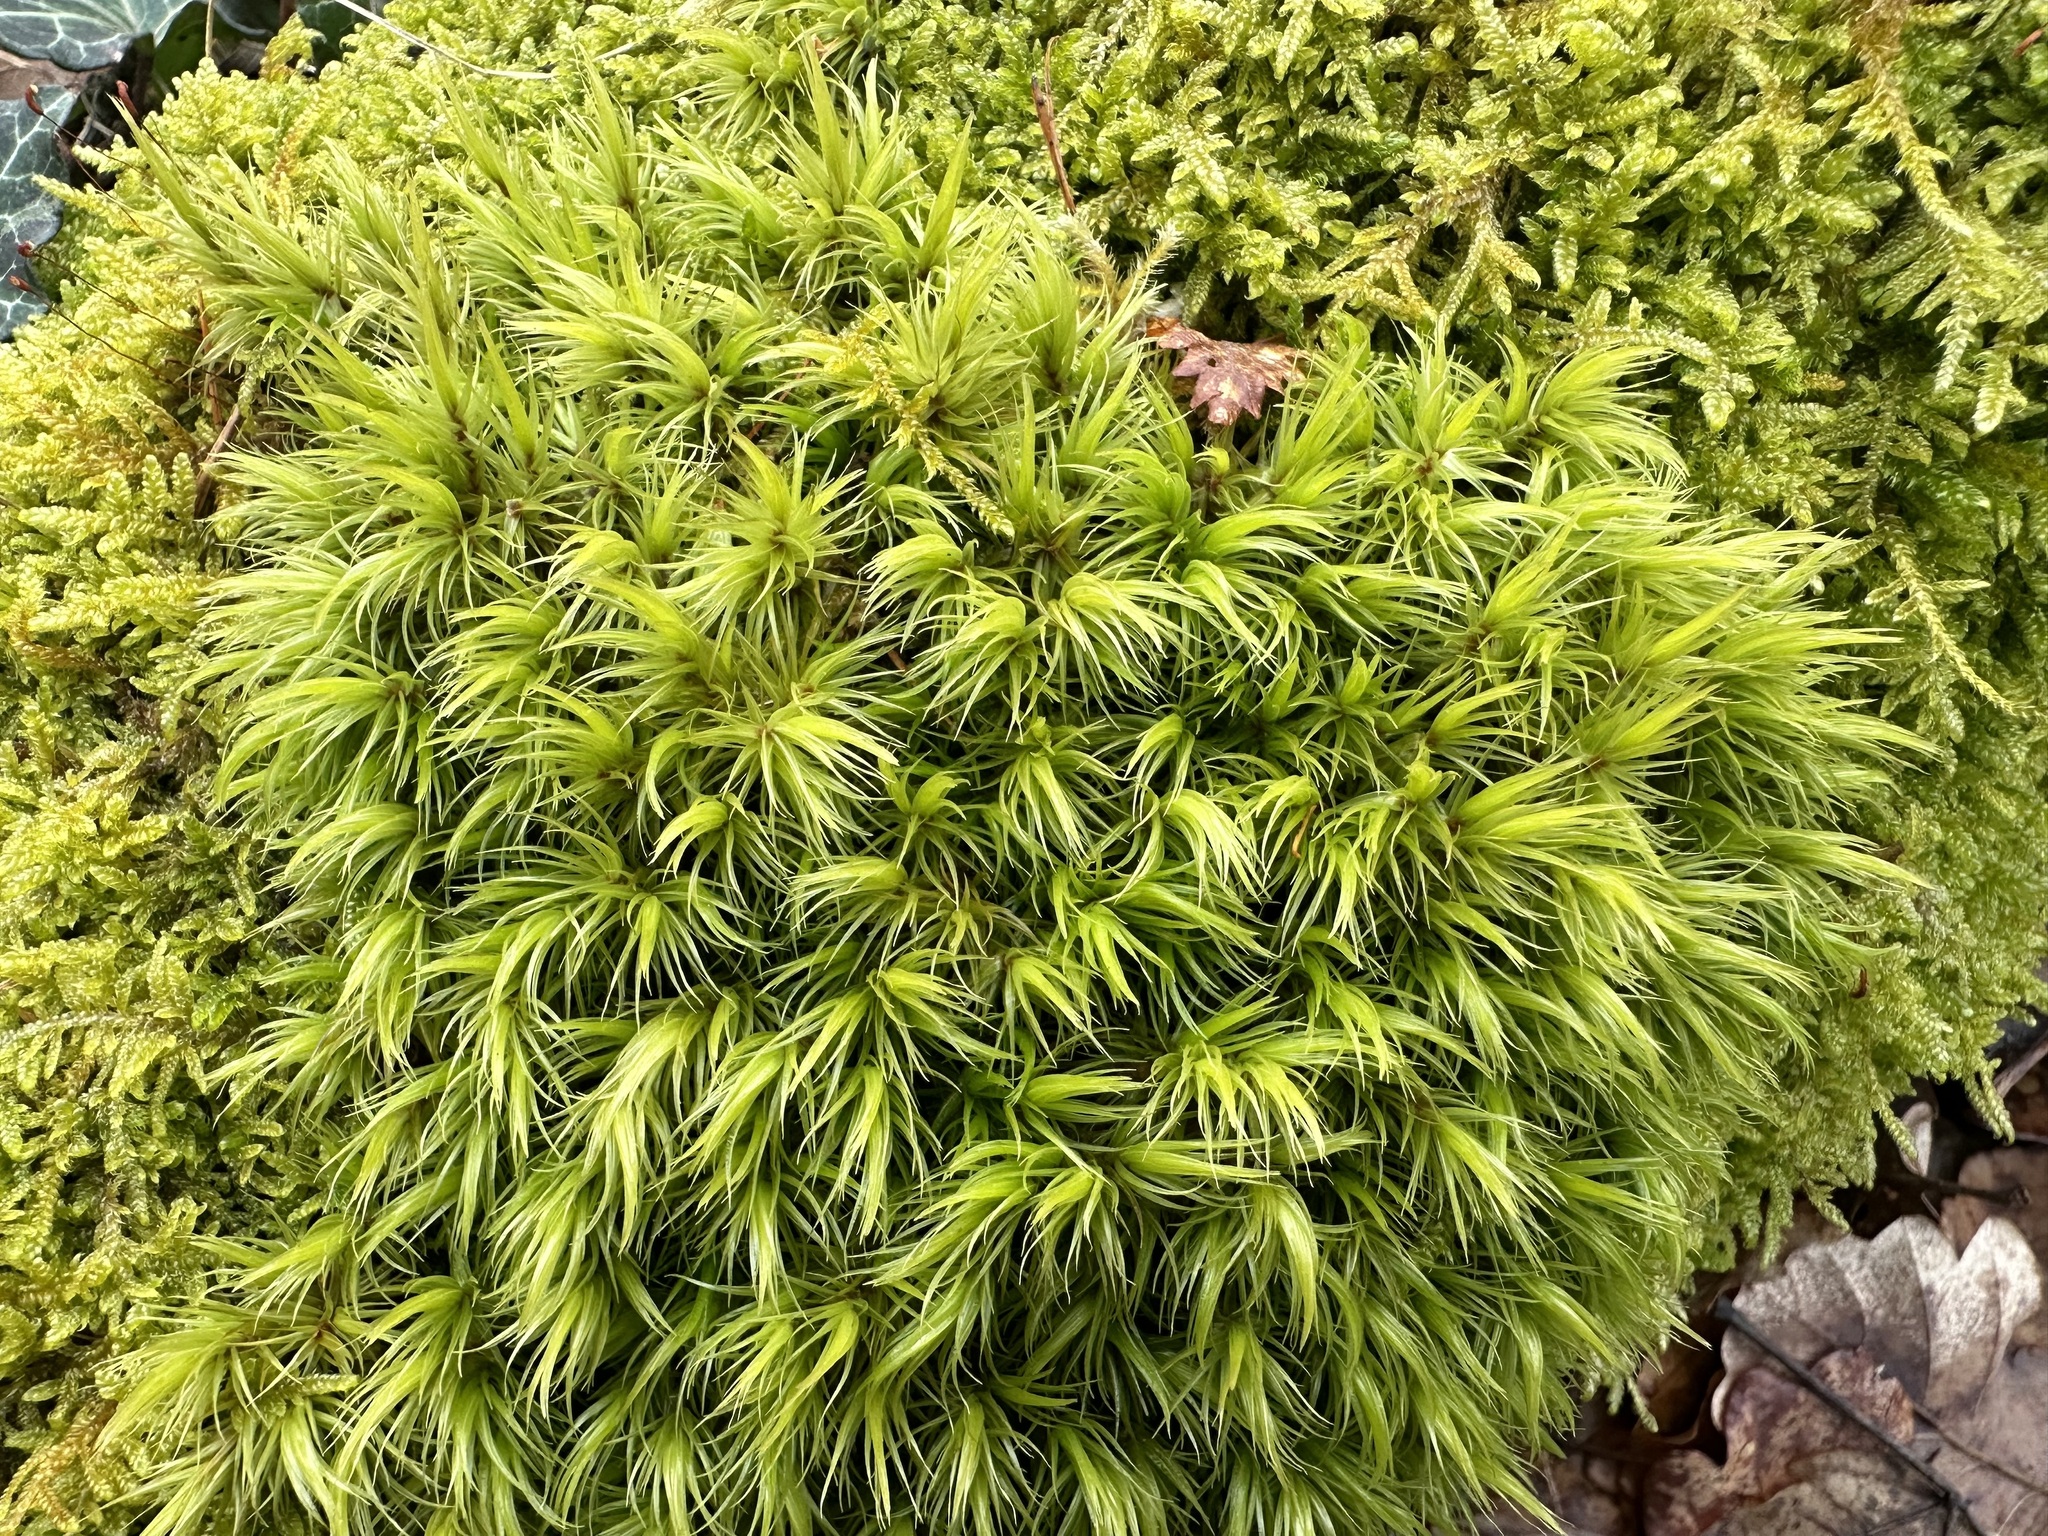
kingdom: Plantae
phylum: Bryophyta
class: Bryopsida
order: Dicranales
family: Dicranaceae
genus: Dicranum
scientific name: Dicranum scoparium
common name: Broom fork-moss
